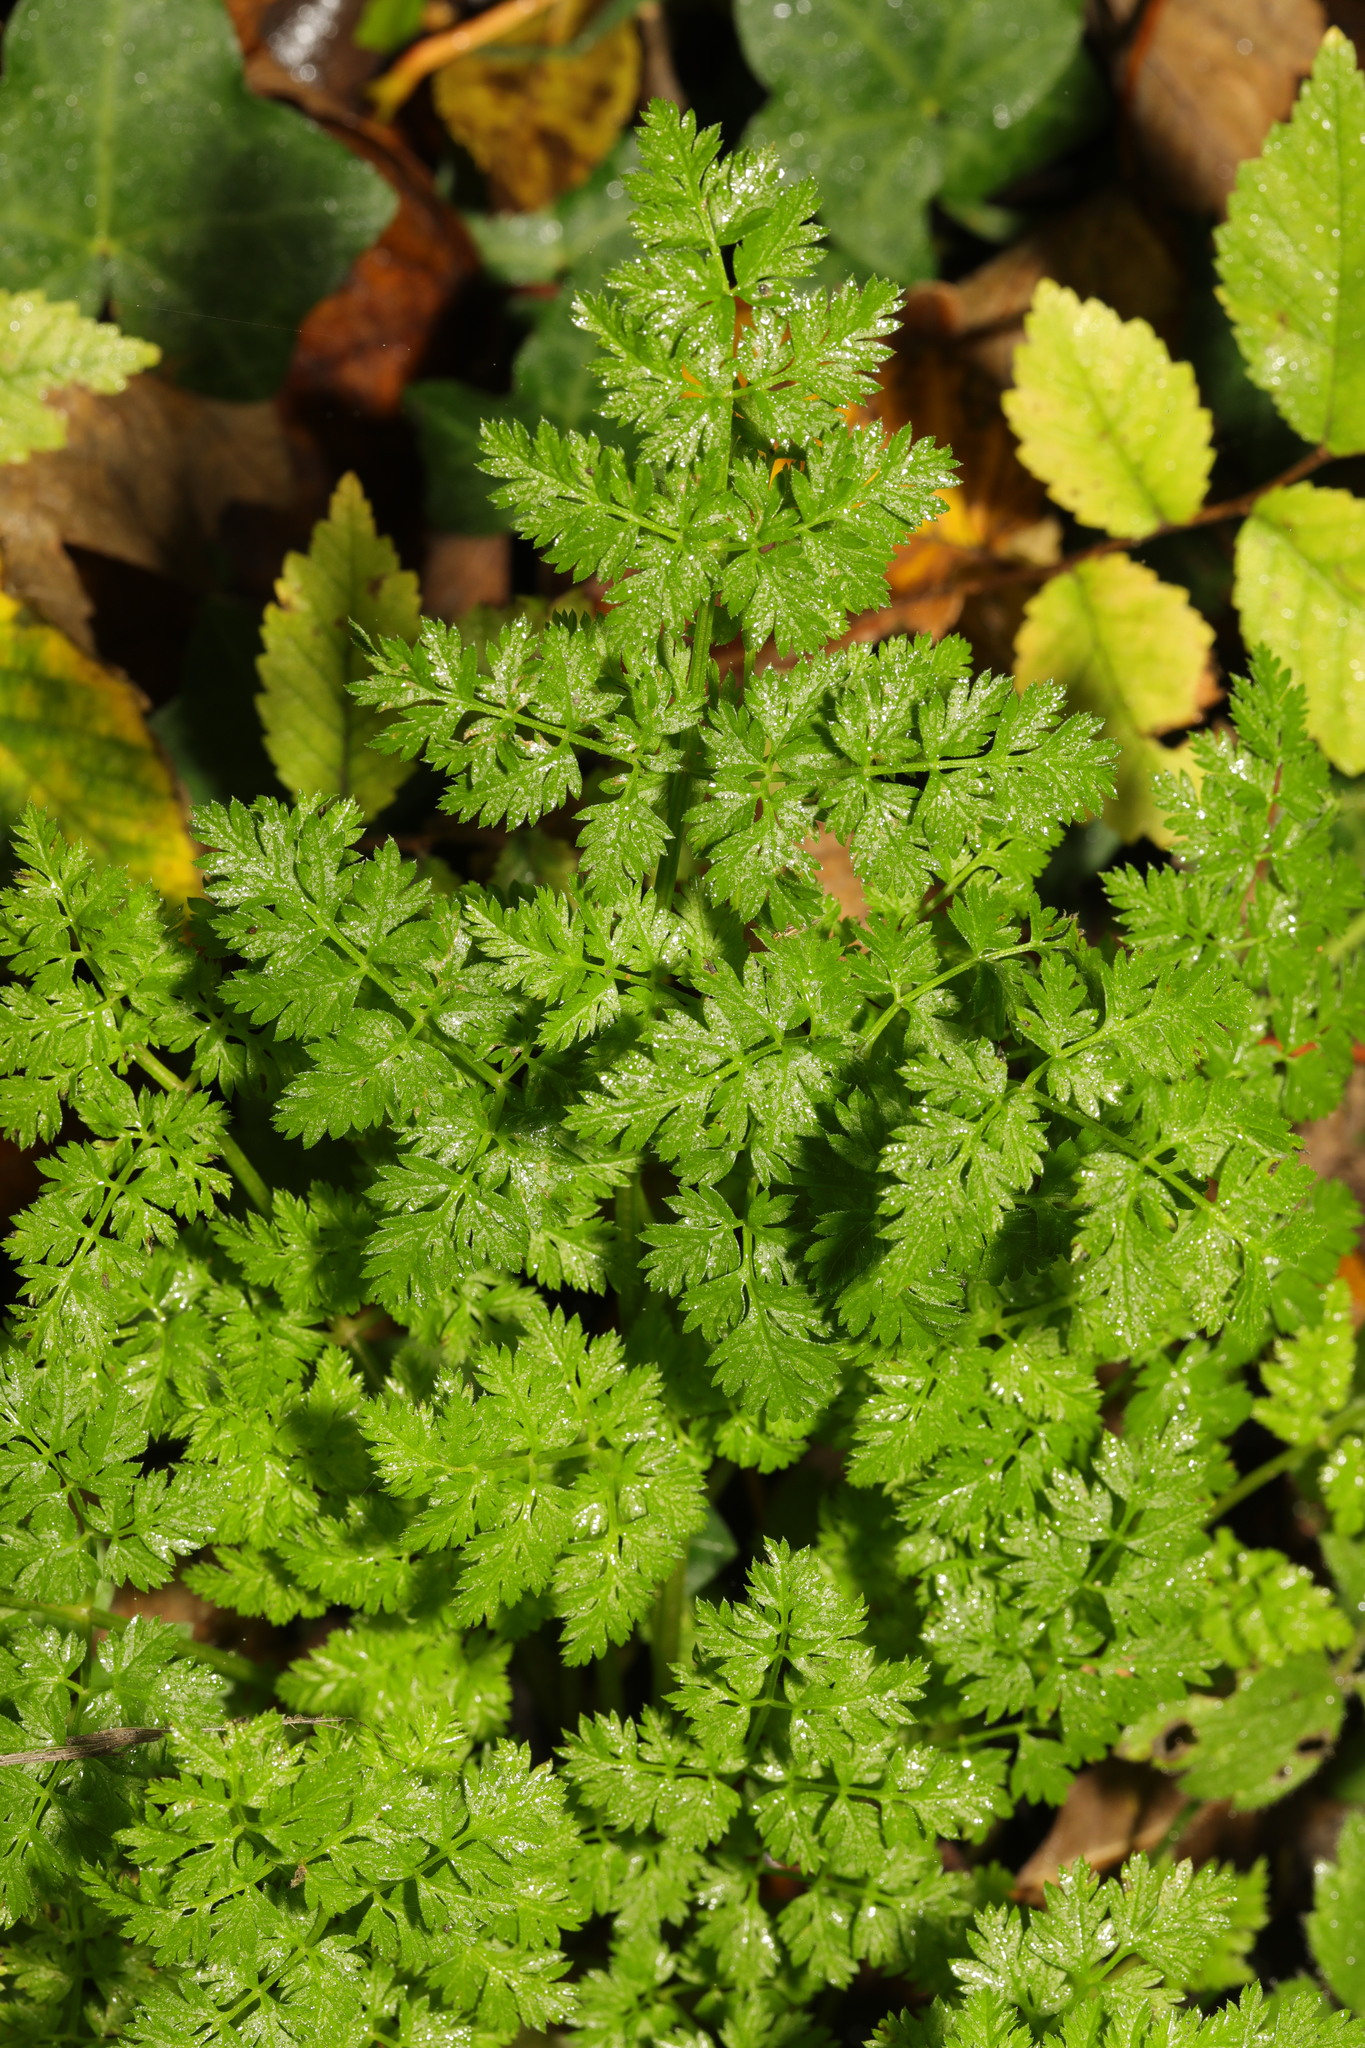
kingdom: Plantae
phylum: Tracheophyta
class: Magnoliopsida
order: Apiales
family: Apiaceae
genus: Anthriscus
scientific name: Anthriscus sylvestris
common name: Cow parsley
